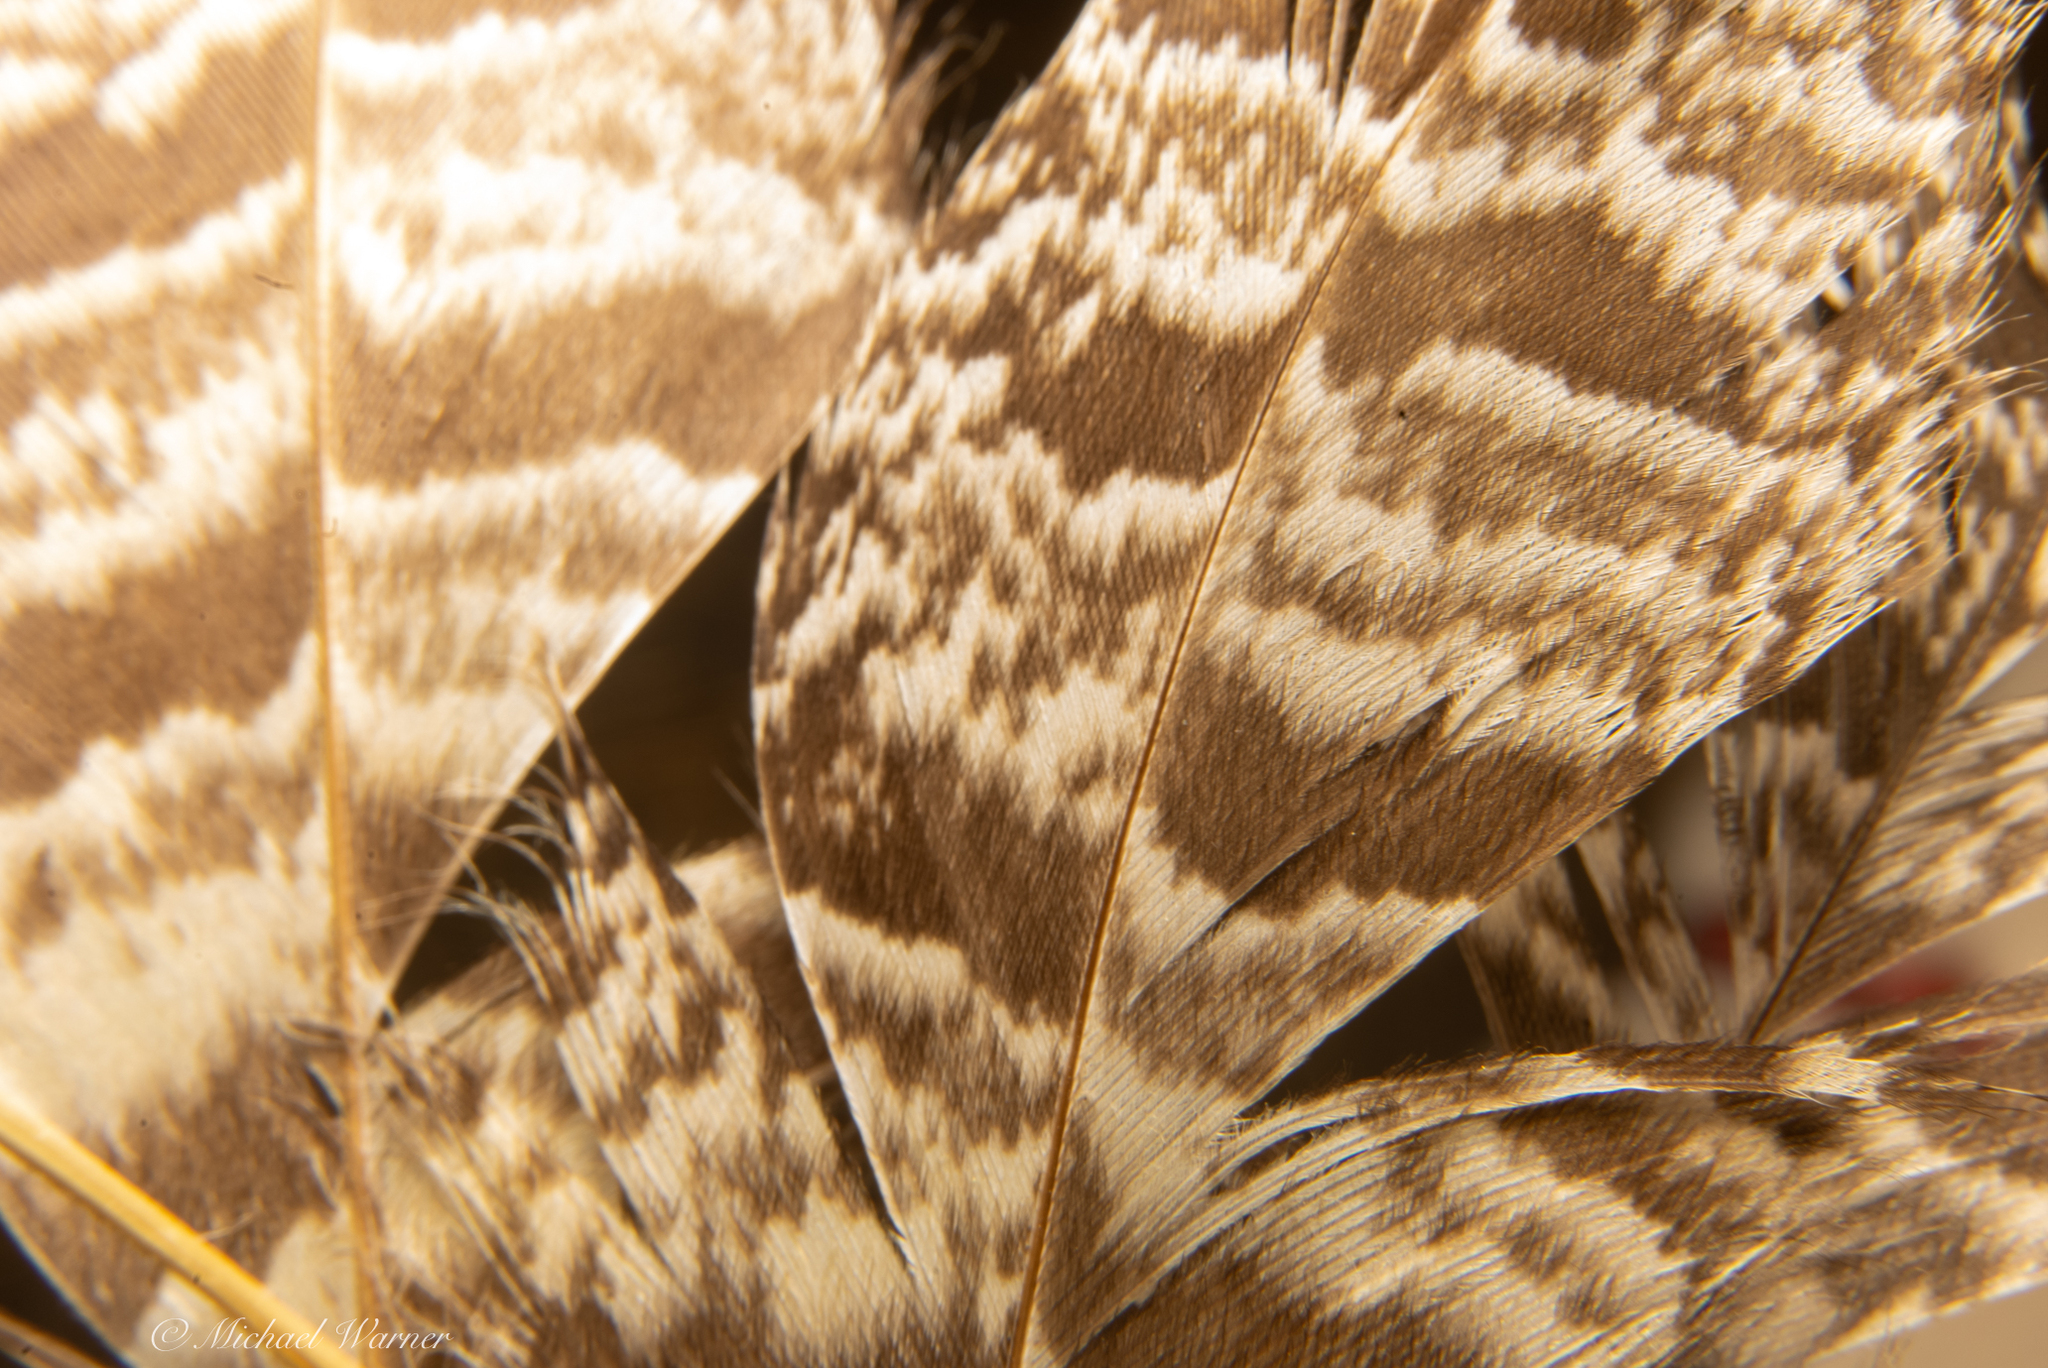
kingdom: Animalia
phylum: Chordata
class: Aves
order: Strigiformes
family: Strigidae
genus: Bubo
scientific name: Bubo virginianus
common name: Great horned owl
